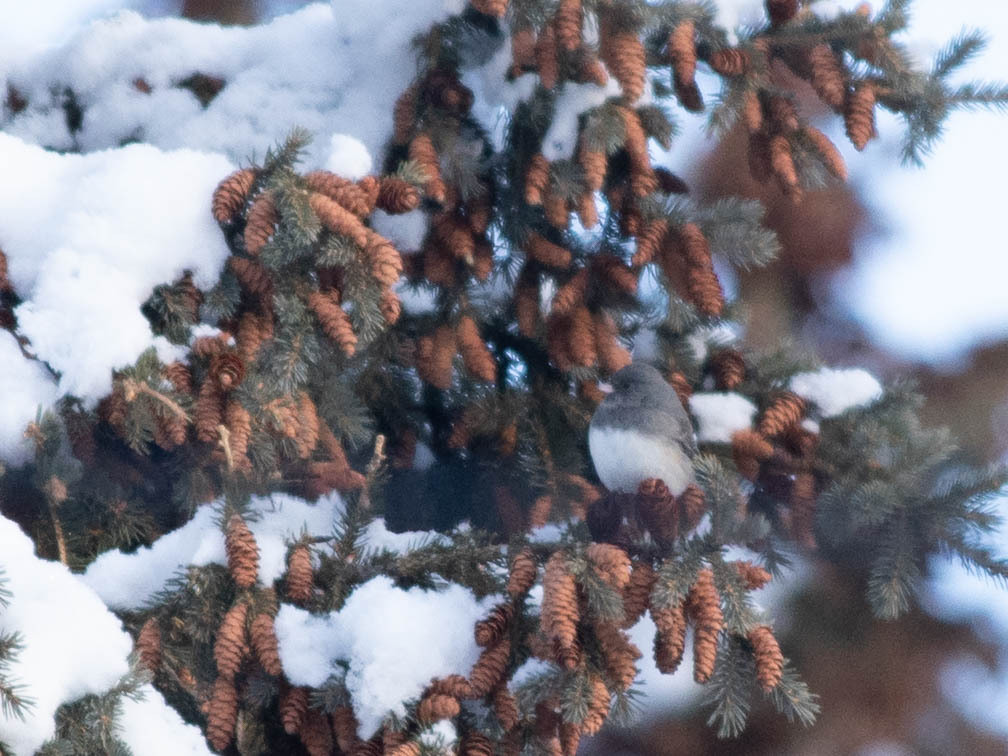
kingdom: Animalia
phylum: Chordata
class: Aves
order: Passeriformes
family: Passerellidae
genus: Junco
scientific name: Junco hyemalis
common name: Dark-eyed junco
